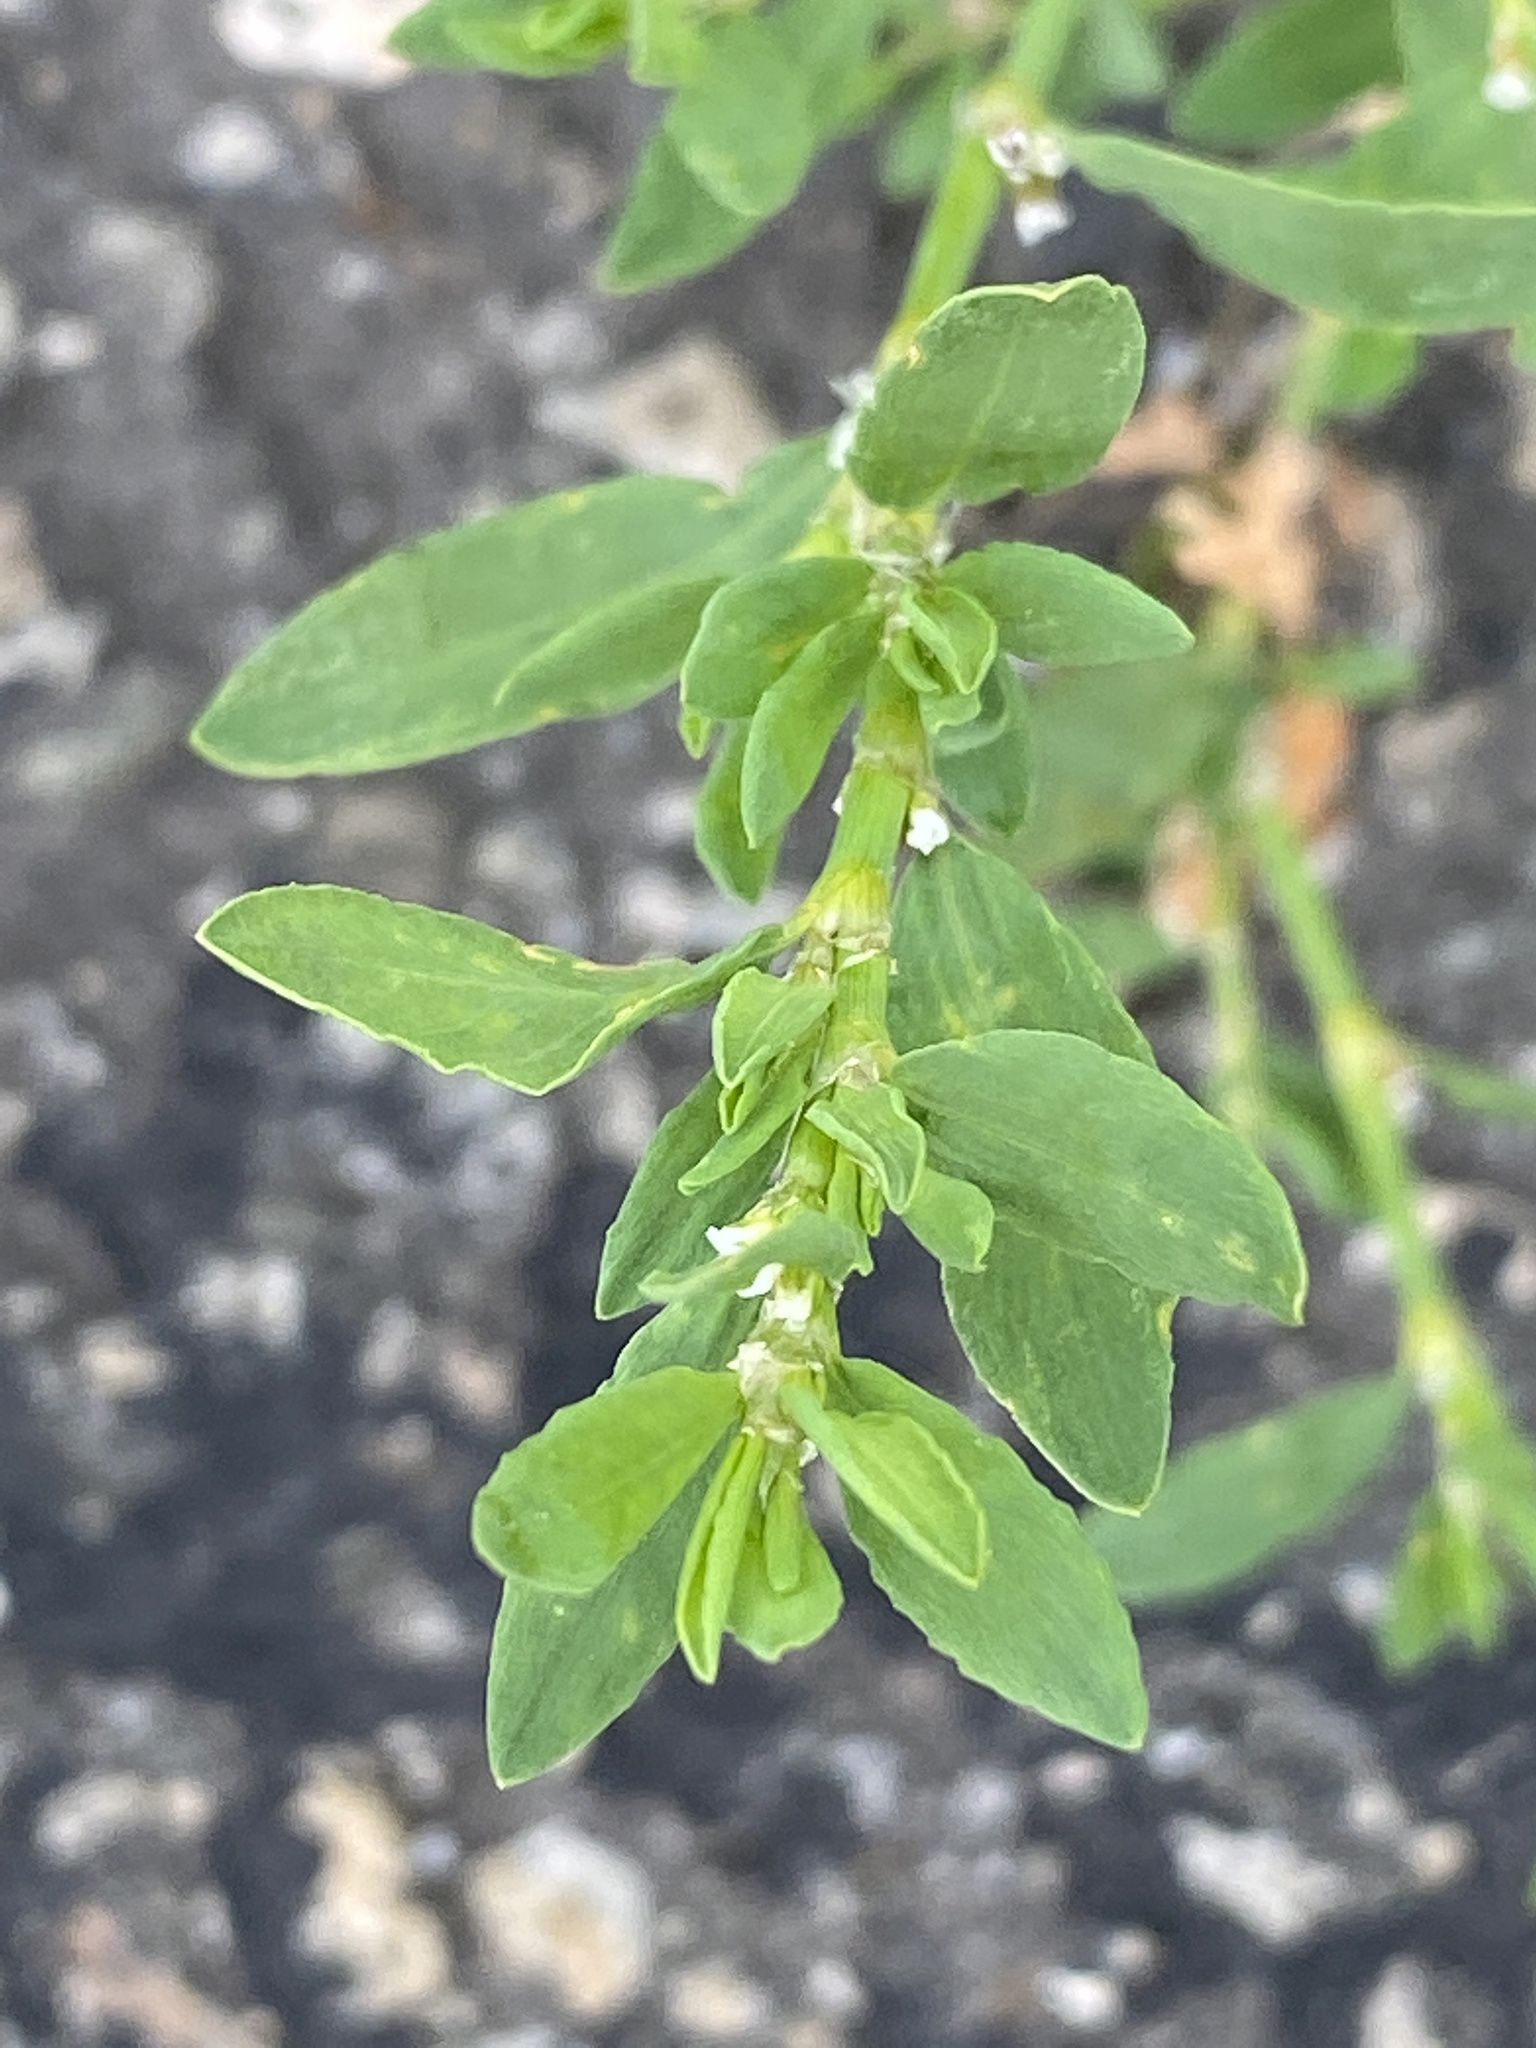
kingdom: Plantae
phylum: Tracheophyta
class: Magnoliopsida
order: Caryophyllales
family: Polygonaceae
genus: Polygonum
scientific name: Polygonum aviculare
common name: Prostrate knotweed
